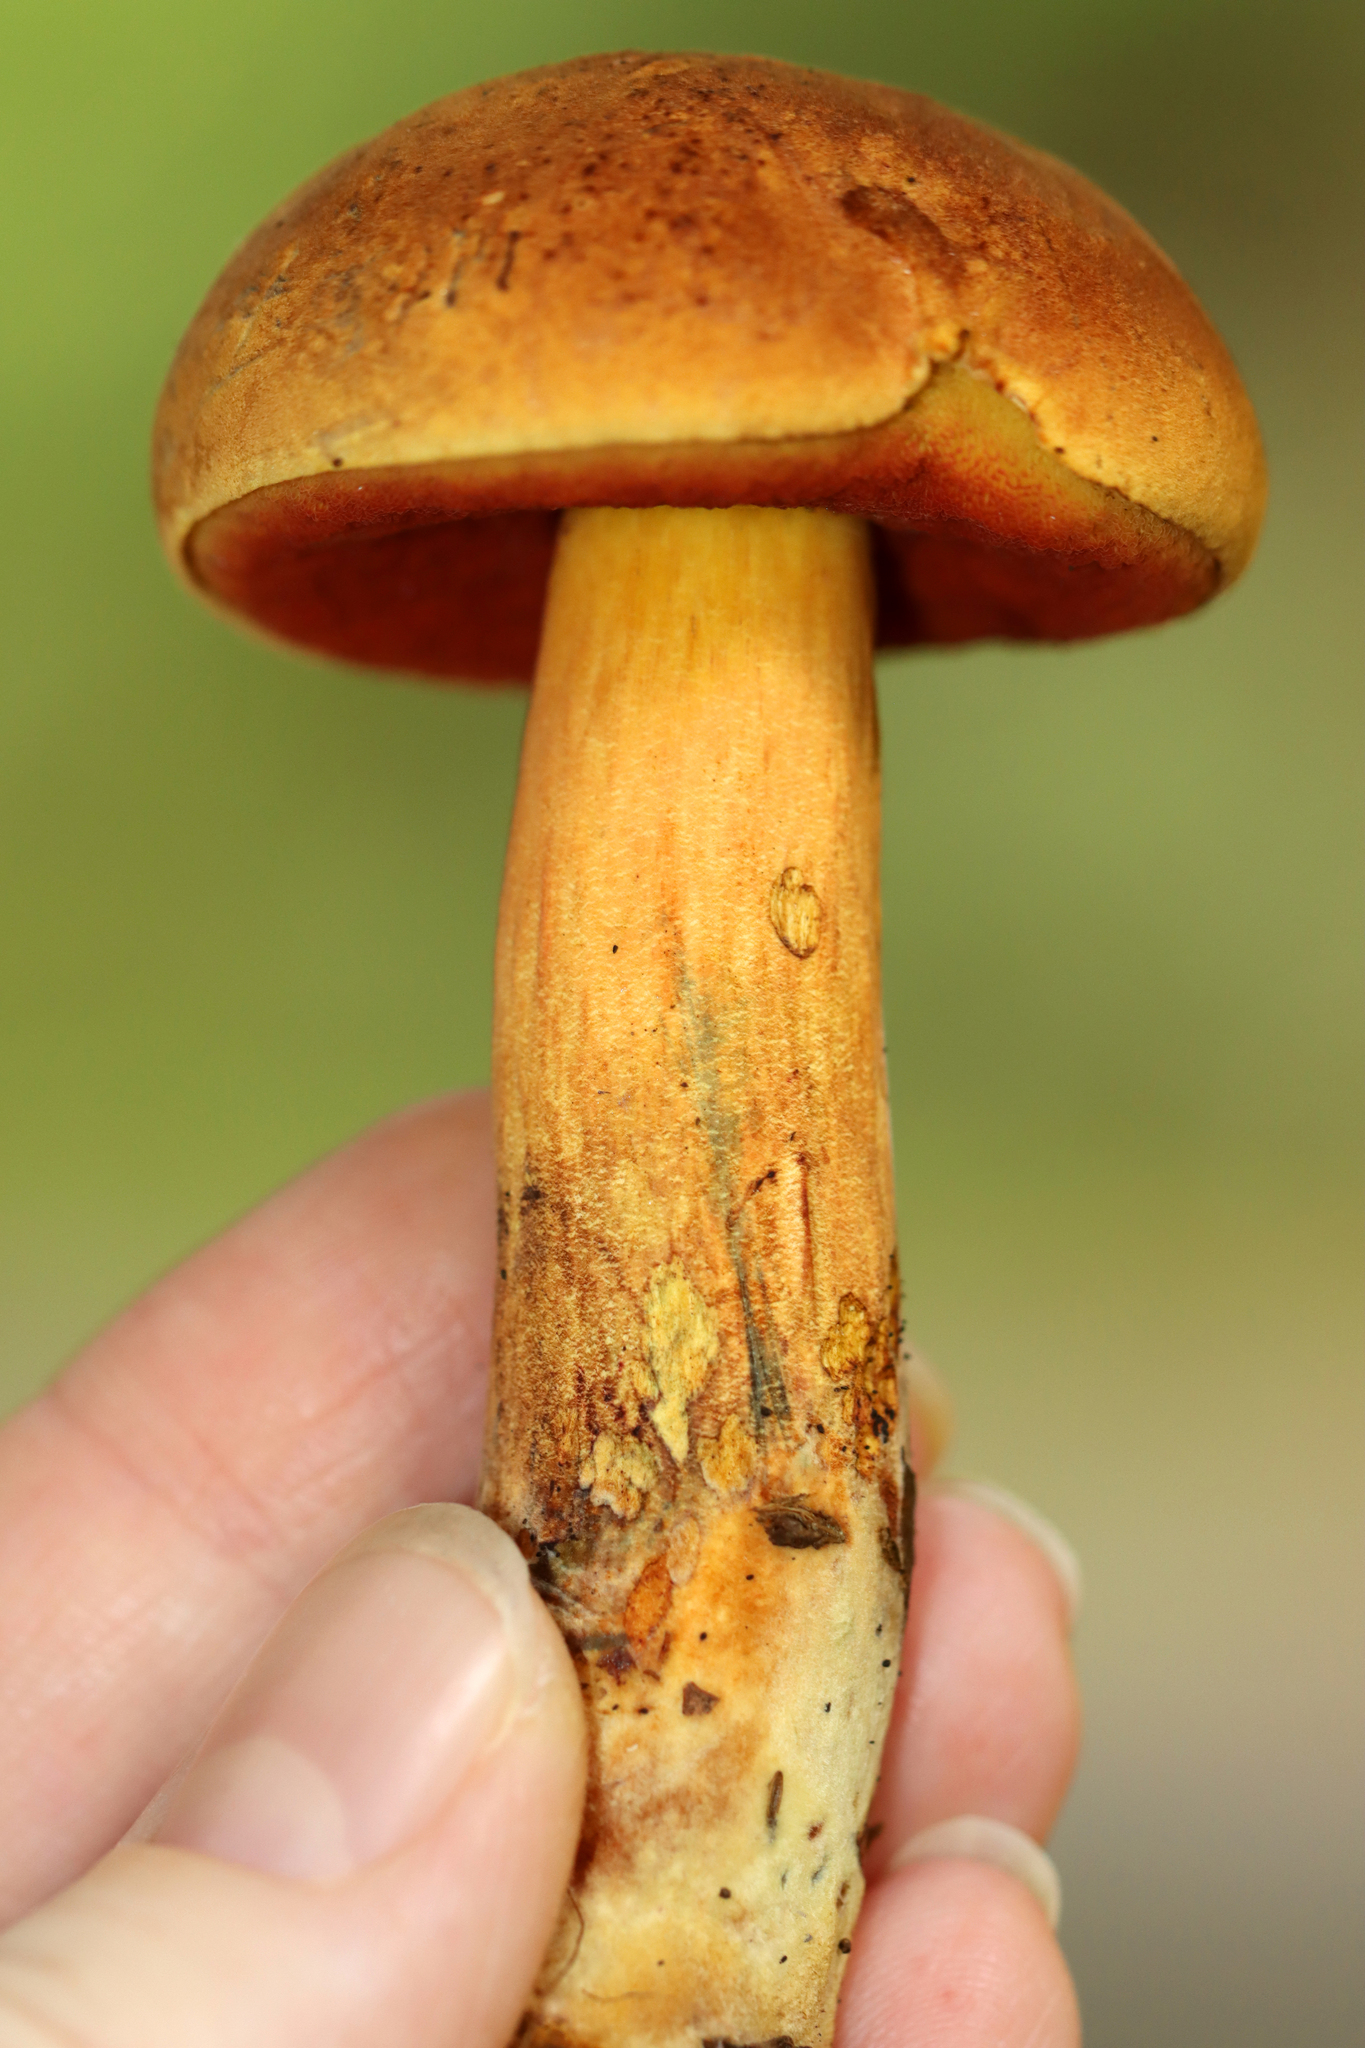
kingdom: Fungi
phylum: Basidiomycota
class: Agaricomycetes
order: Boletales
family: Boletaceae
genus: Boletus
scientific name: Boletus subvelutipes
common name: Red-mouth bolete
